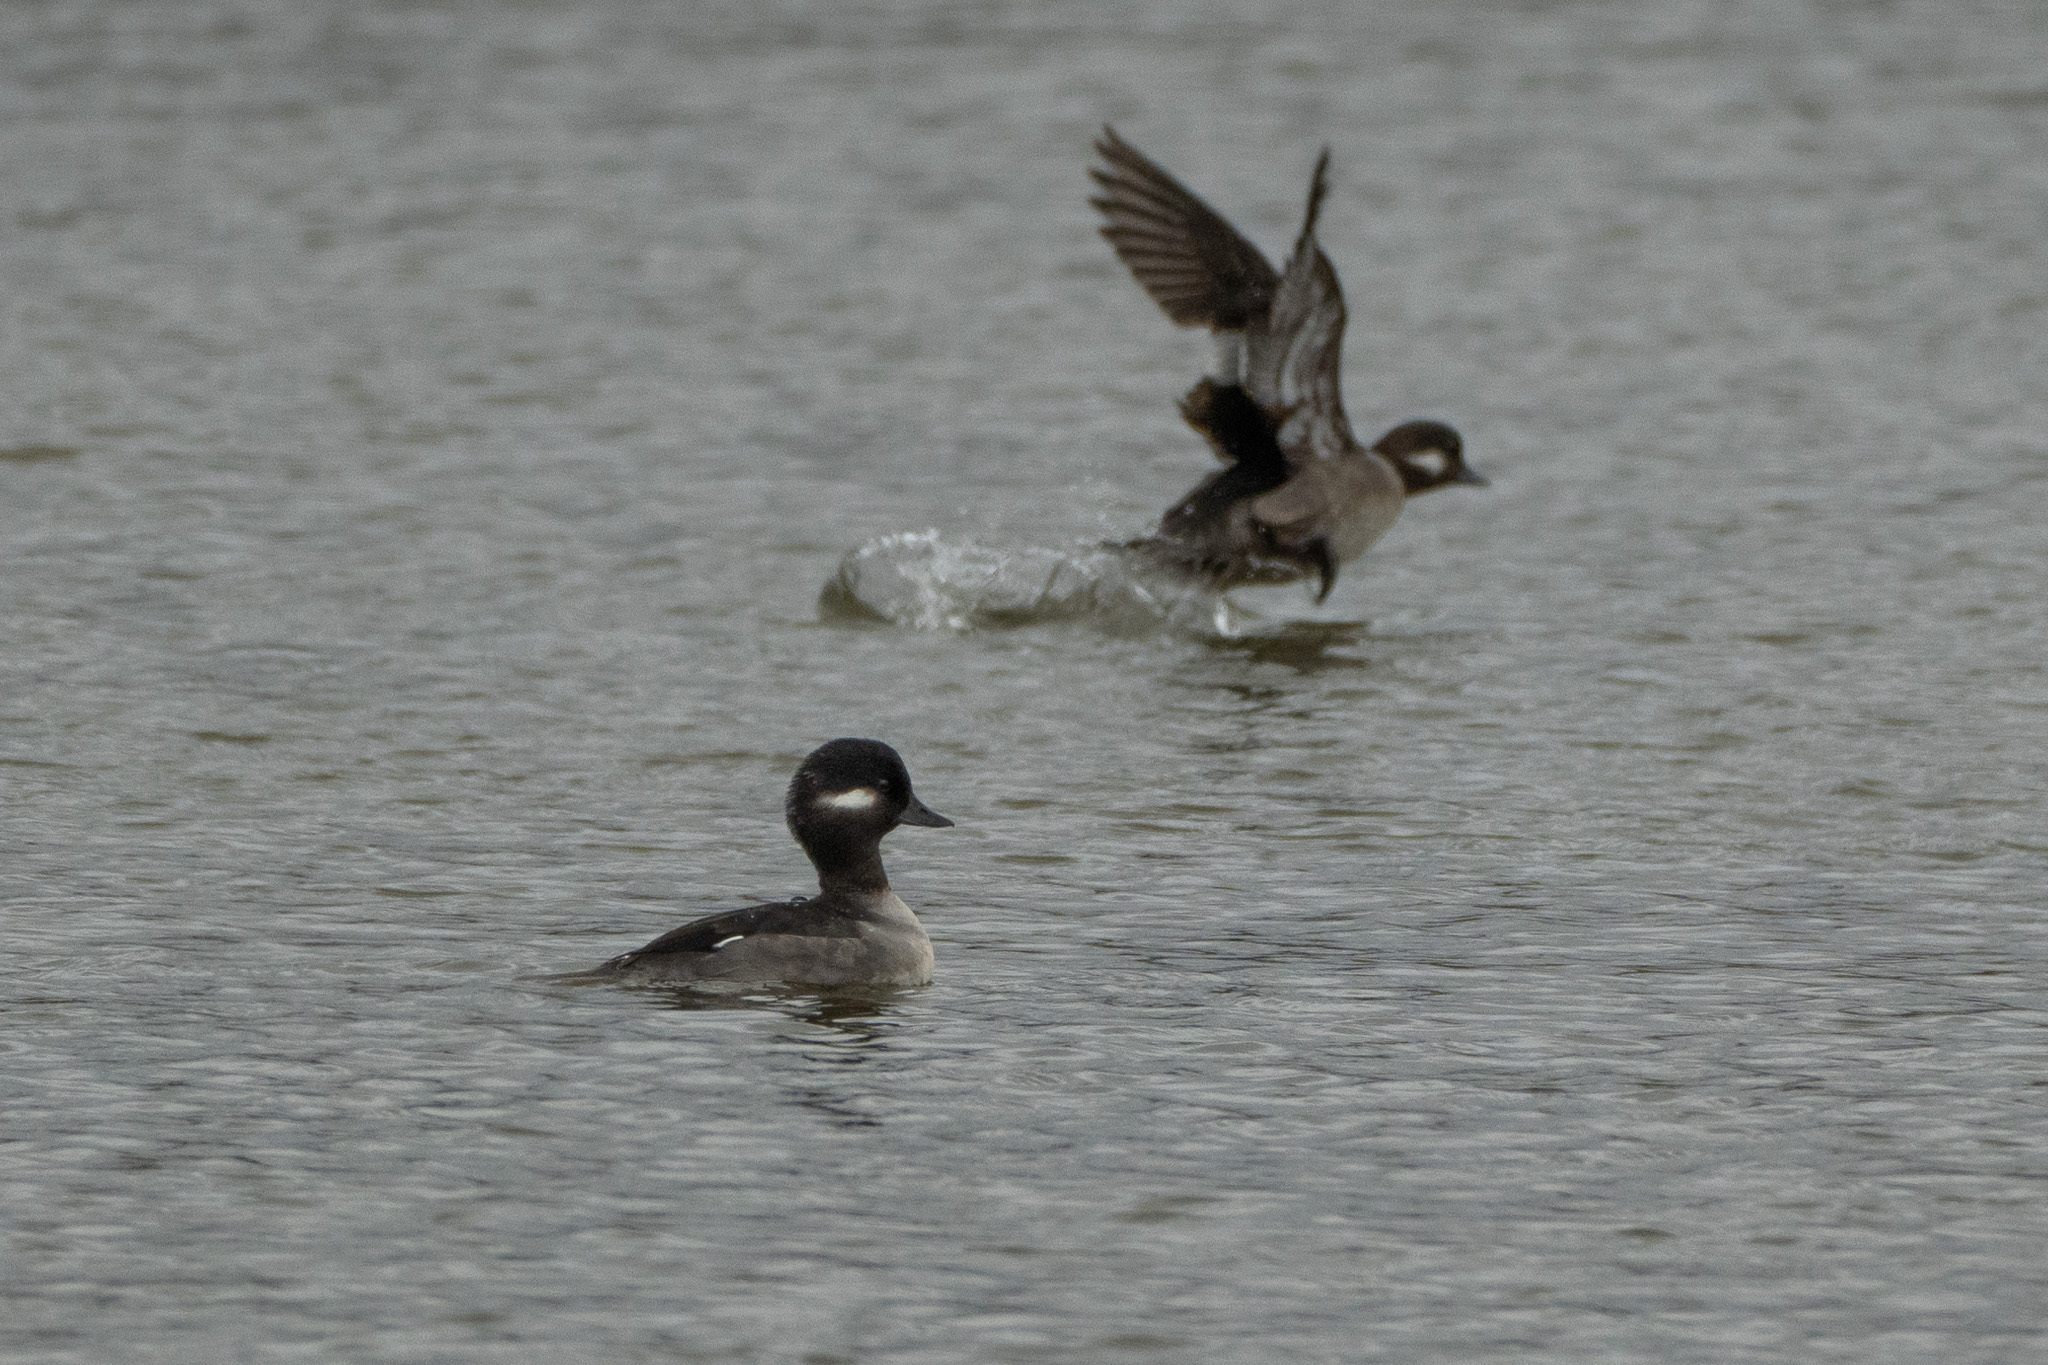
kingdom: Animalia
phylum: Chordata
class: Aves
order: Anseriformes
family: Anatidae
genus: Bucephala
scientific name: Bucephala albeola
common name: Bufflehead
